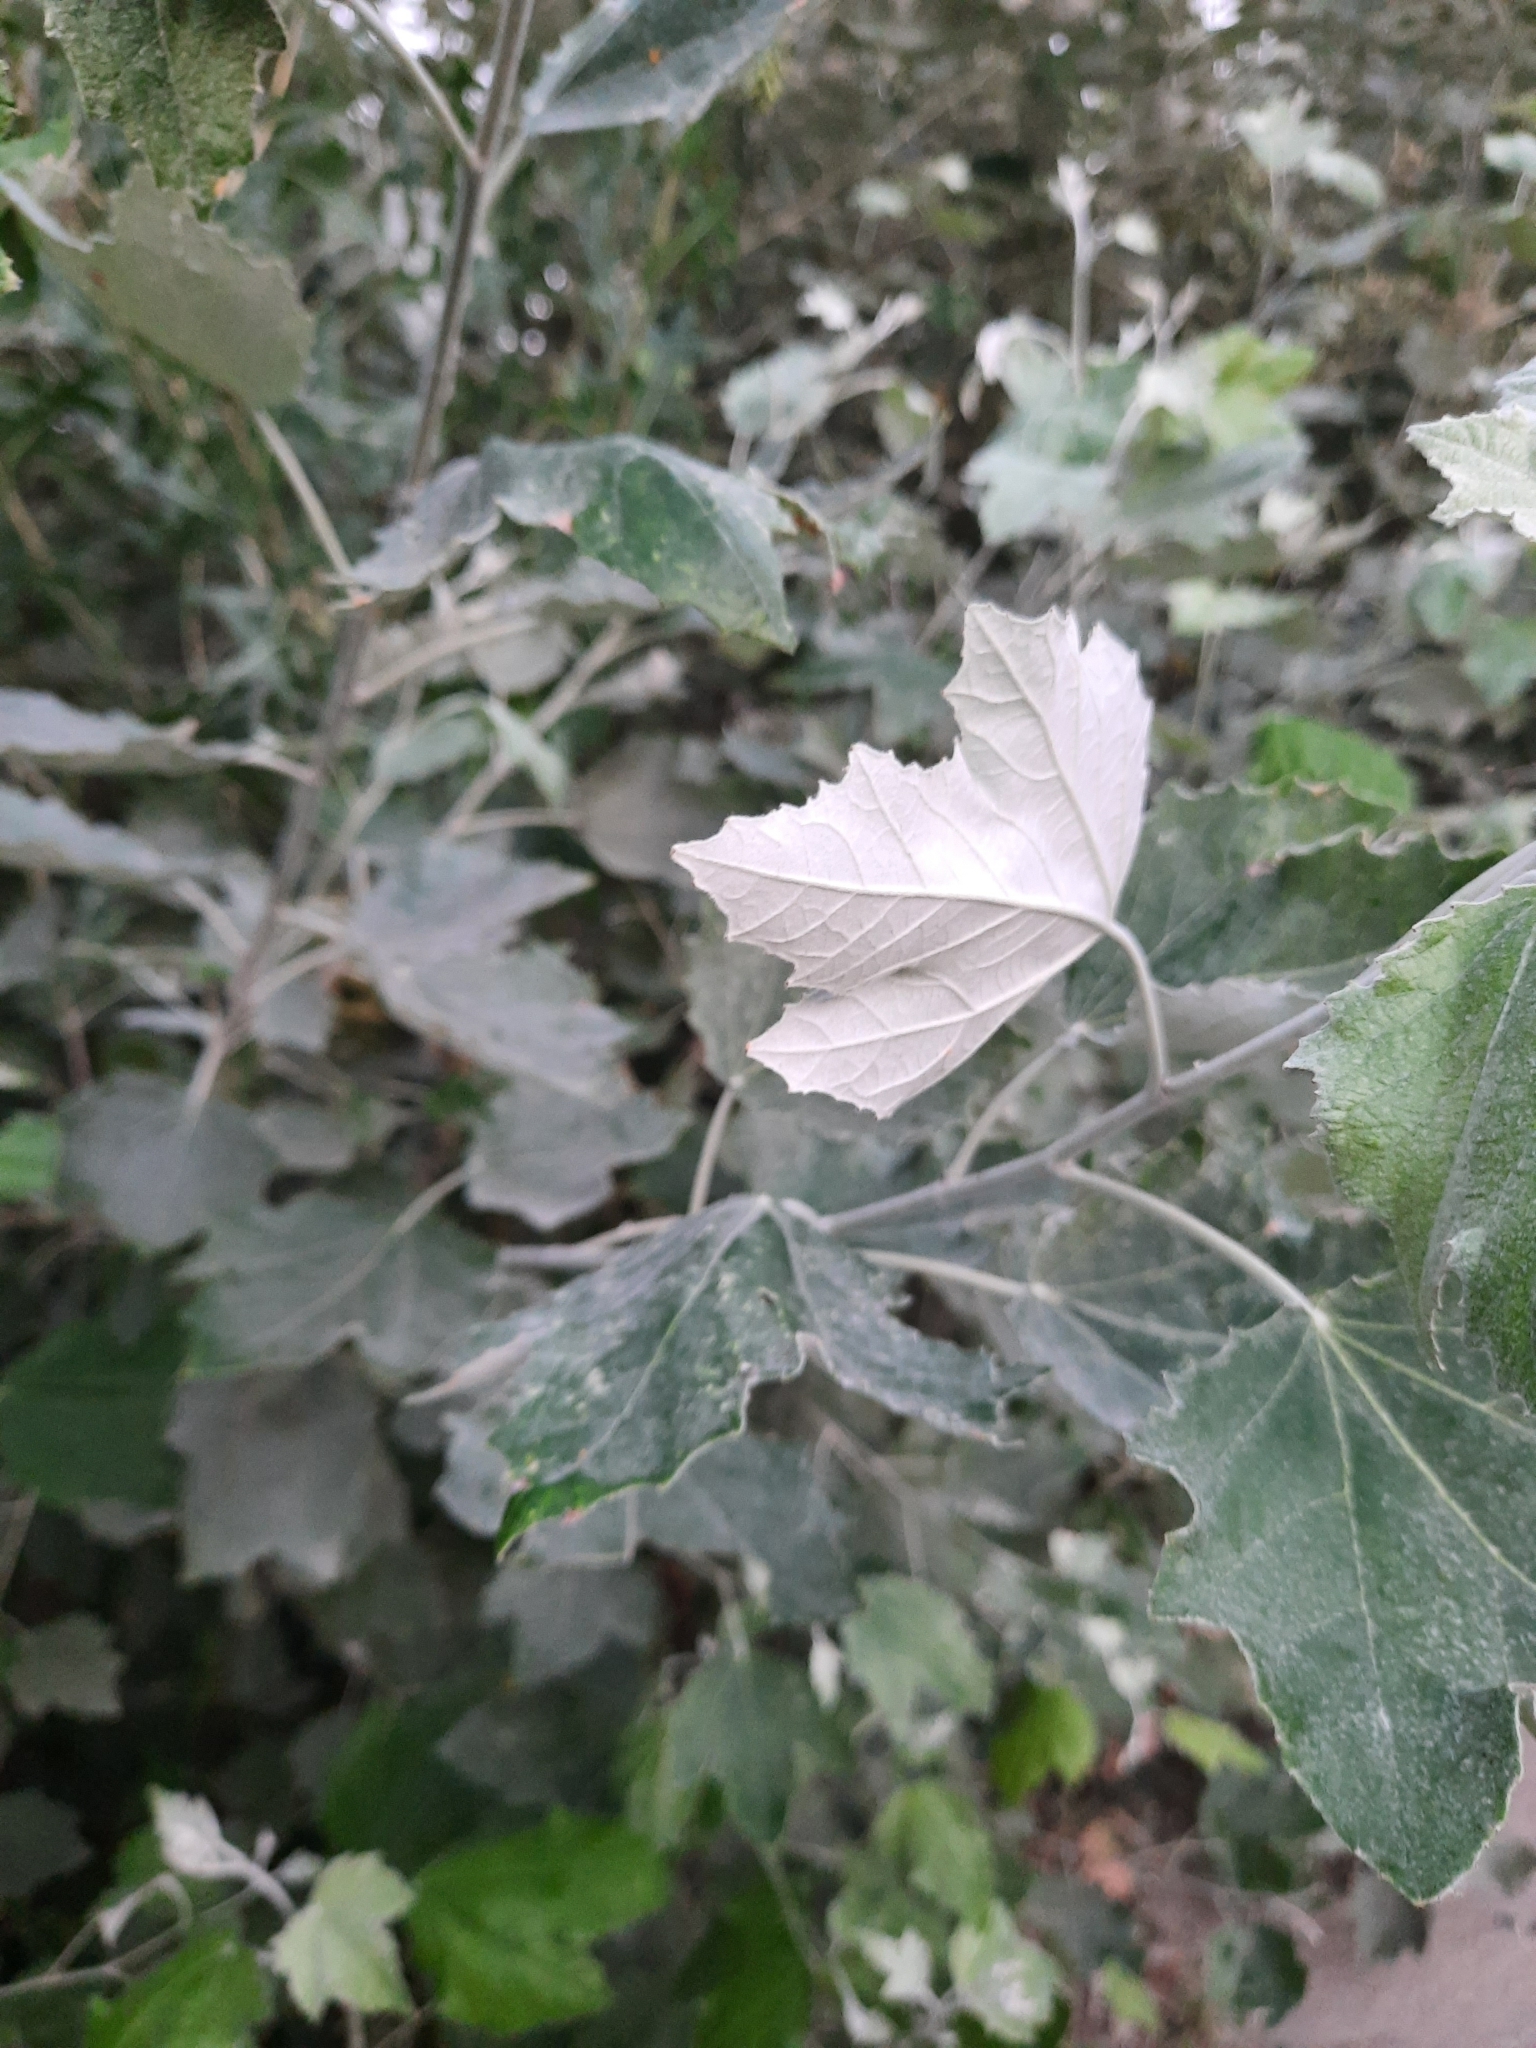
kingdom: Plantae
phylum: Tracheophyta
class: Magnoliopsida
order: Malpighiales
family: Salicaceae
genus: Populus
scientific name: Populus alba
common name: White poplar
